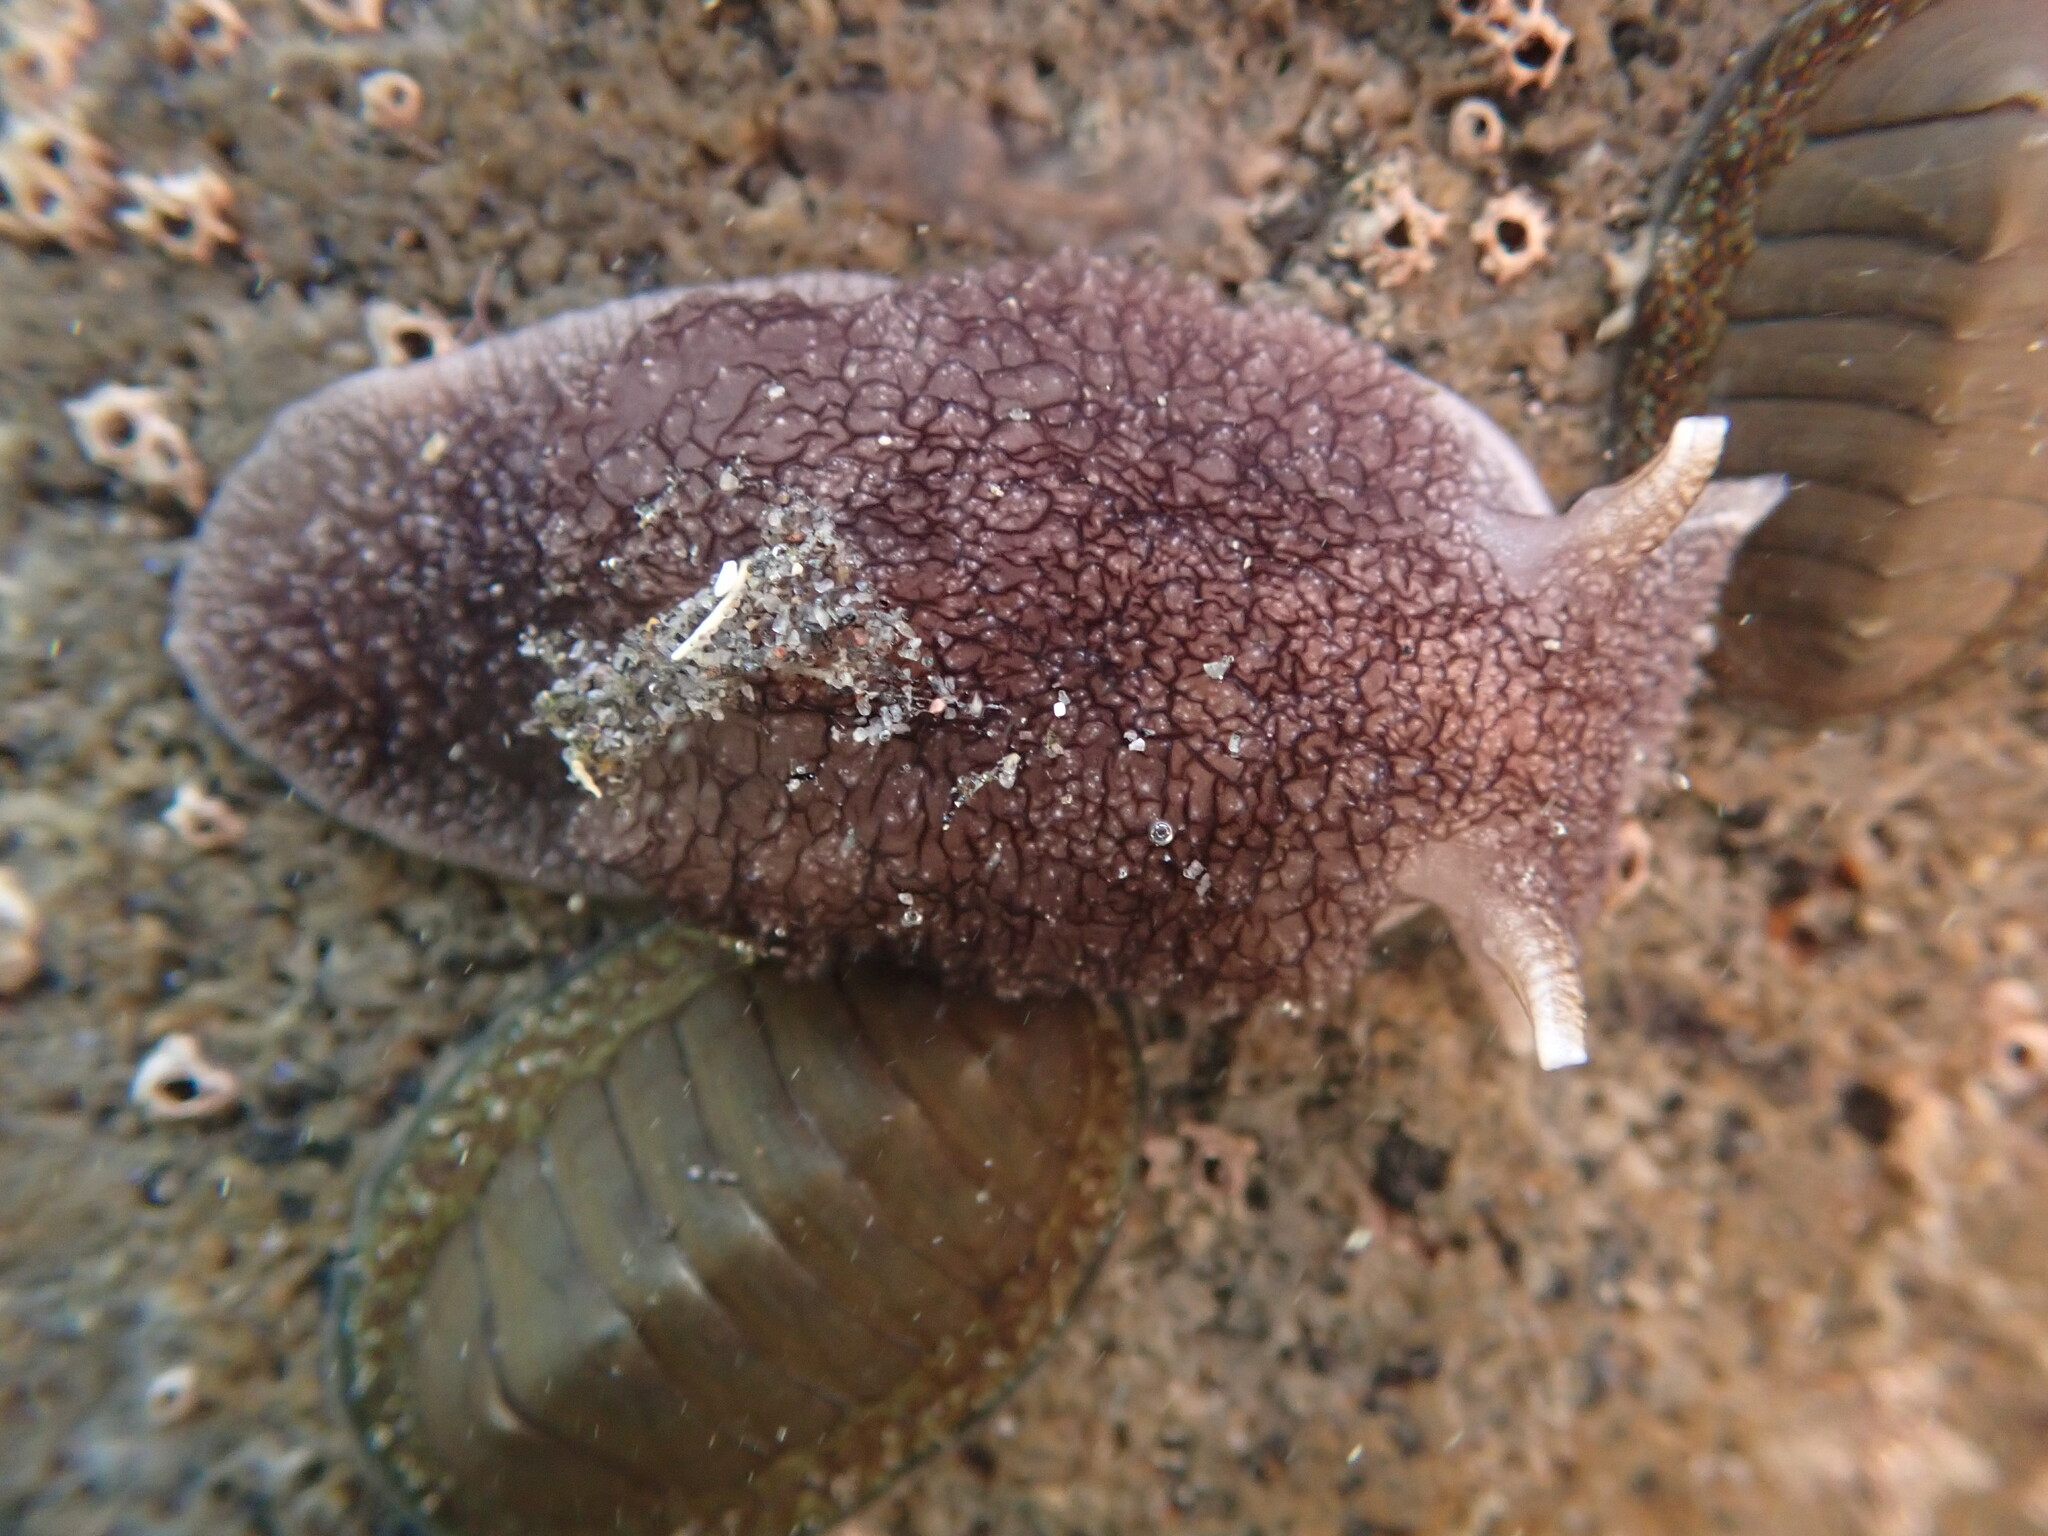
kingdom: Animalia
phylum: Mollusca
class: Gastropoda
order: Pleurobranchida
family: Pleurobranchaeidae
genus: Pleurobranchaea
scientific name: Pleurobranchaea maculata
